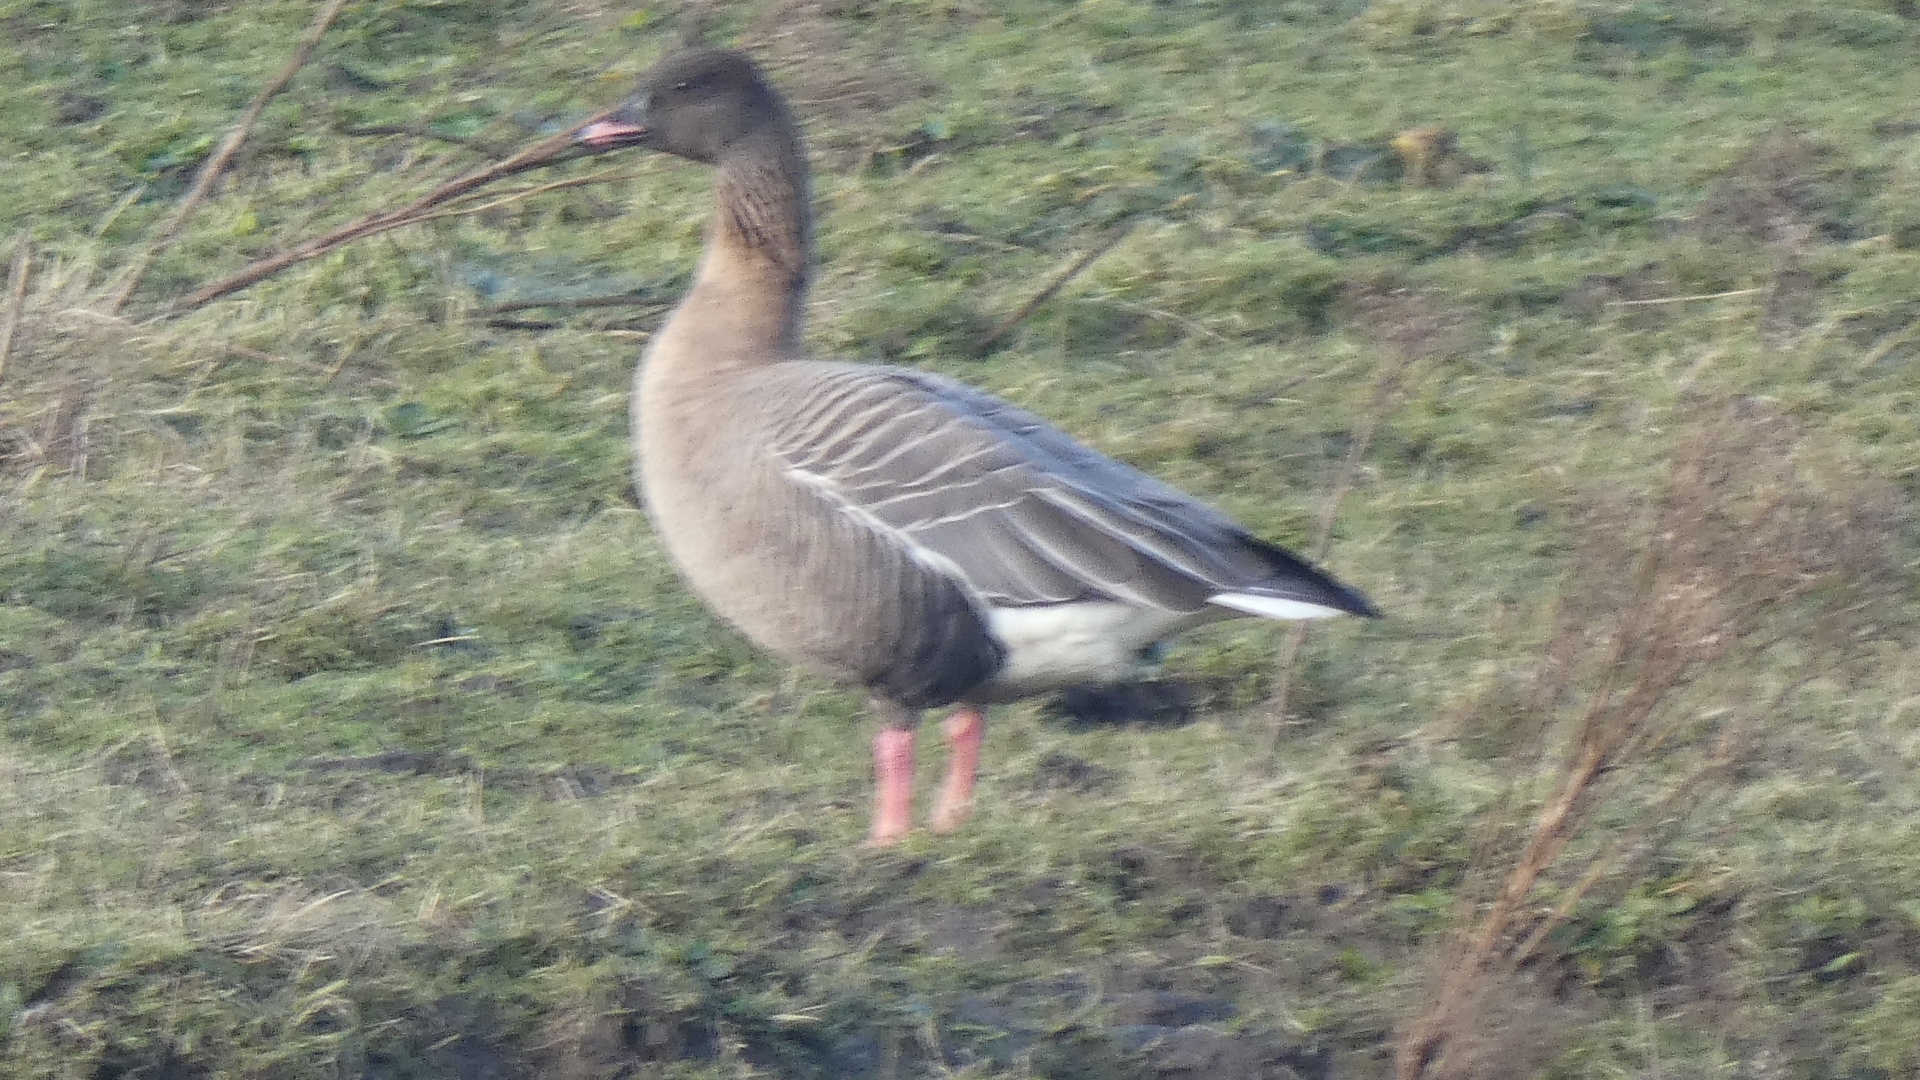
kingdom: Animalia
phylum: Chordata
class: Aves
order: Anseriformes
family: Anatidae
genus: Anser
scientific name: Anser brachyrhynchus
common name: Pink-footed goose
